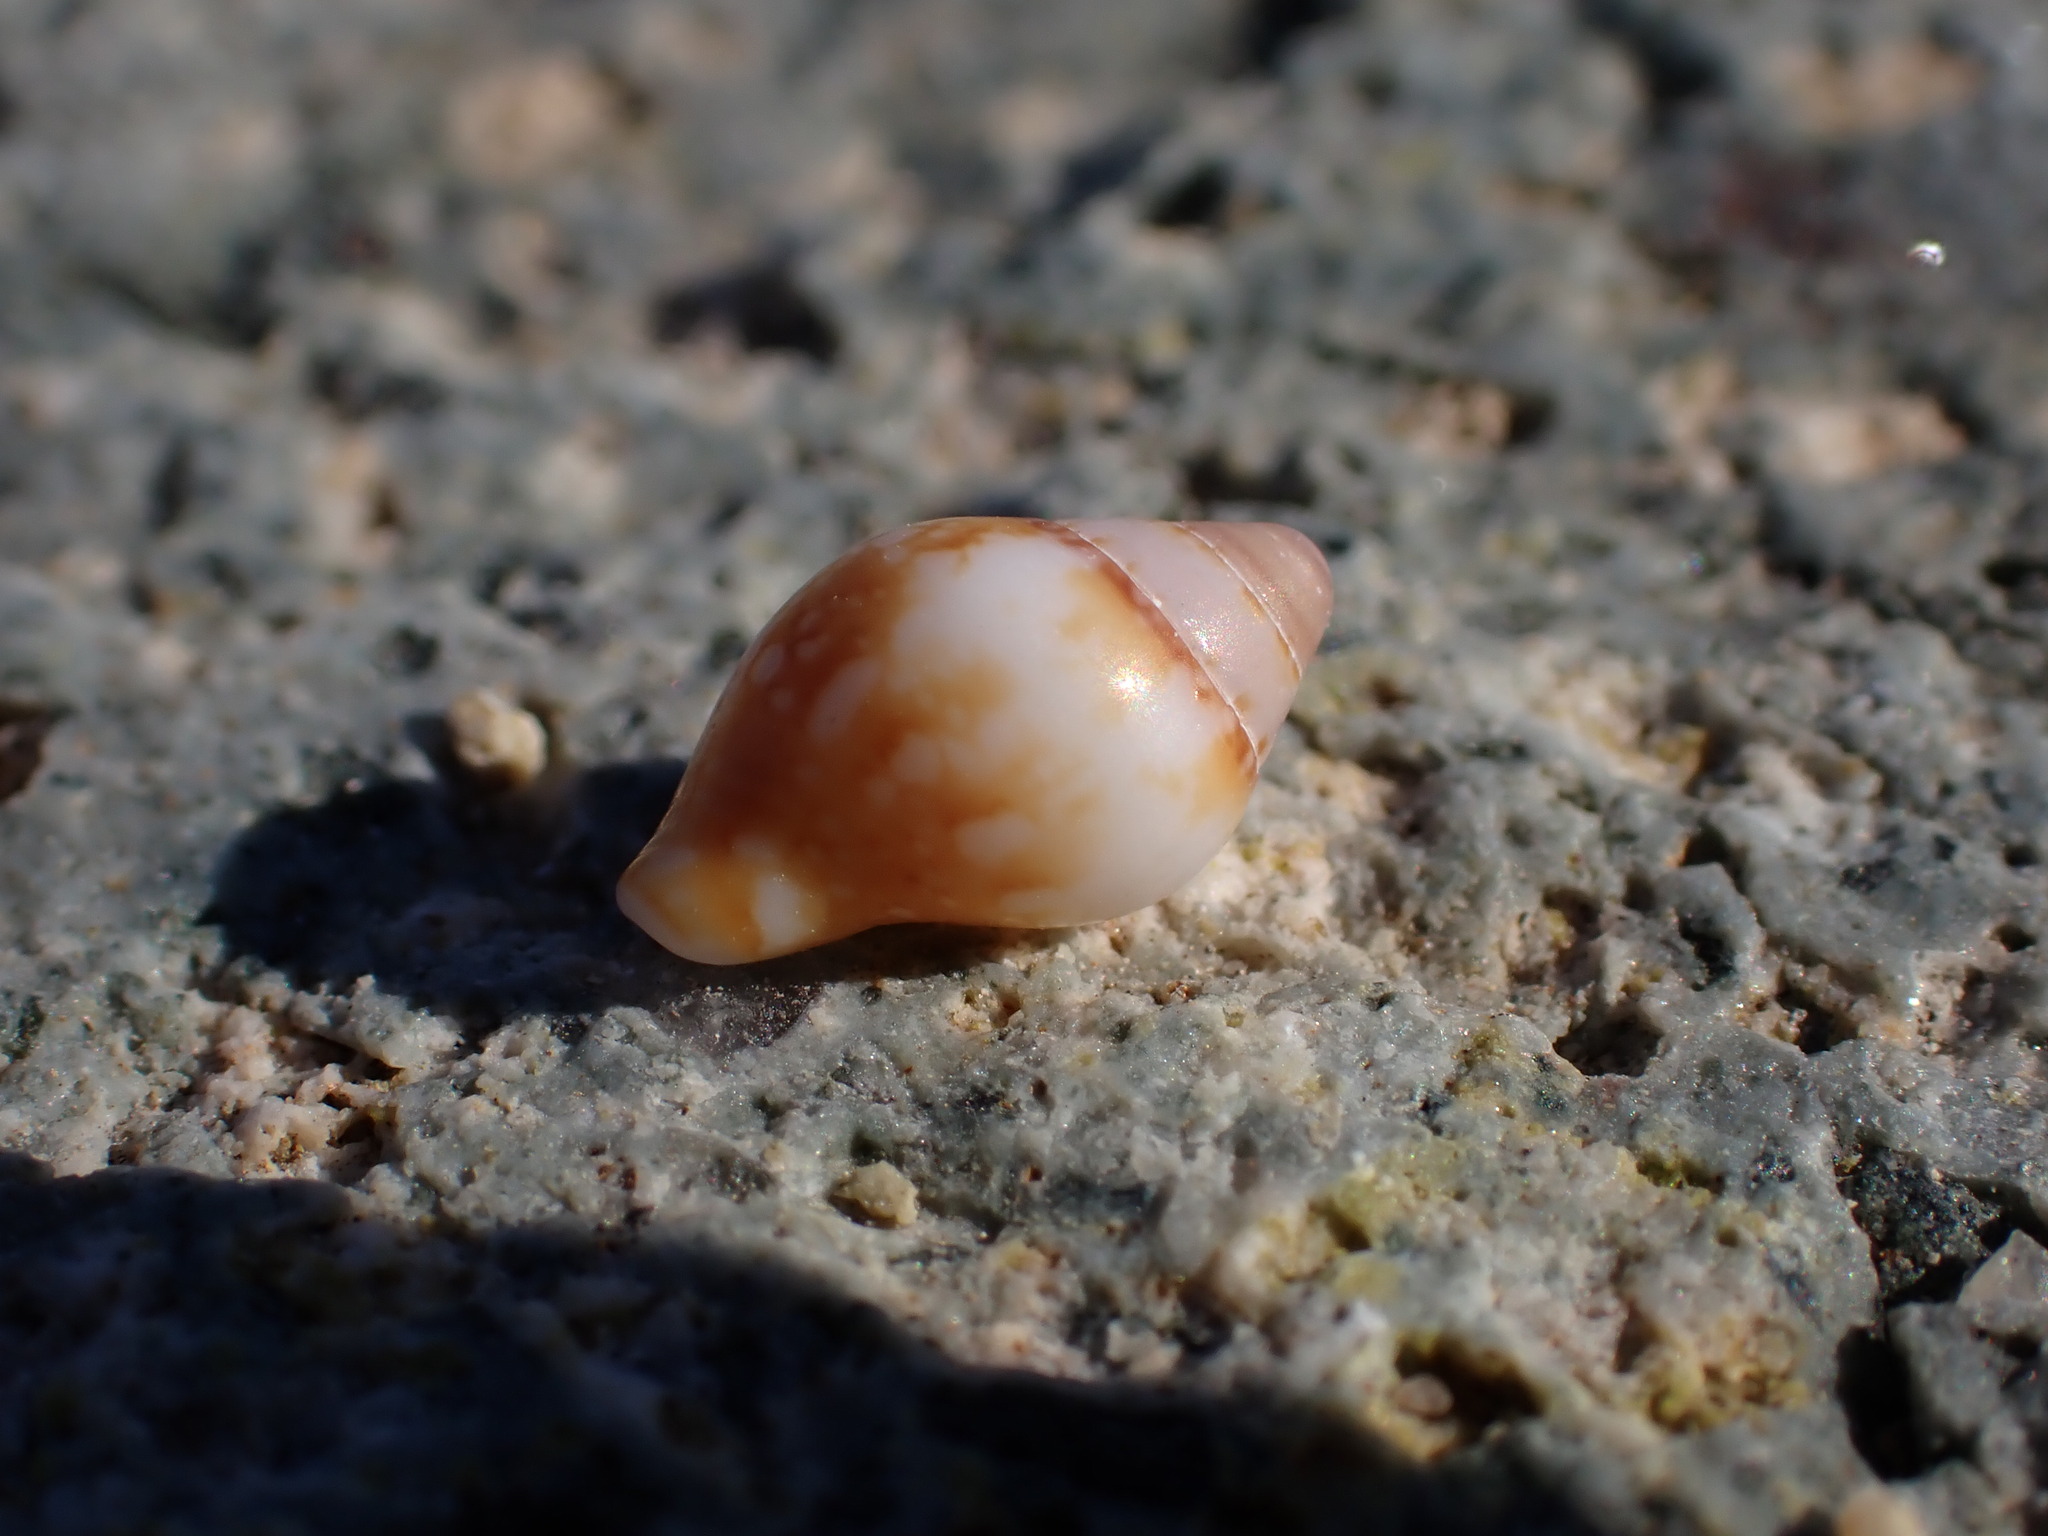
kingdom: Animalia
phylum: Mollusca
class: Gastropoda
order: Neogastropoda
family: Columbellidae
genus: Columbella
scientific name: Columbella rustica
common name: Rustic dove shell
